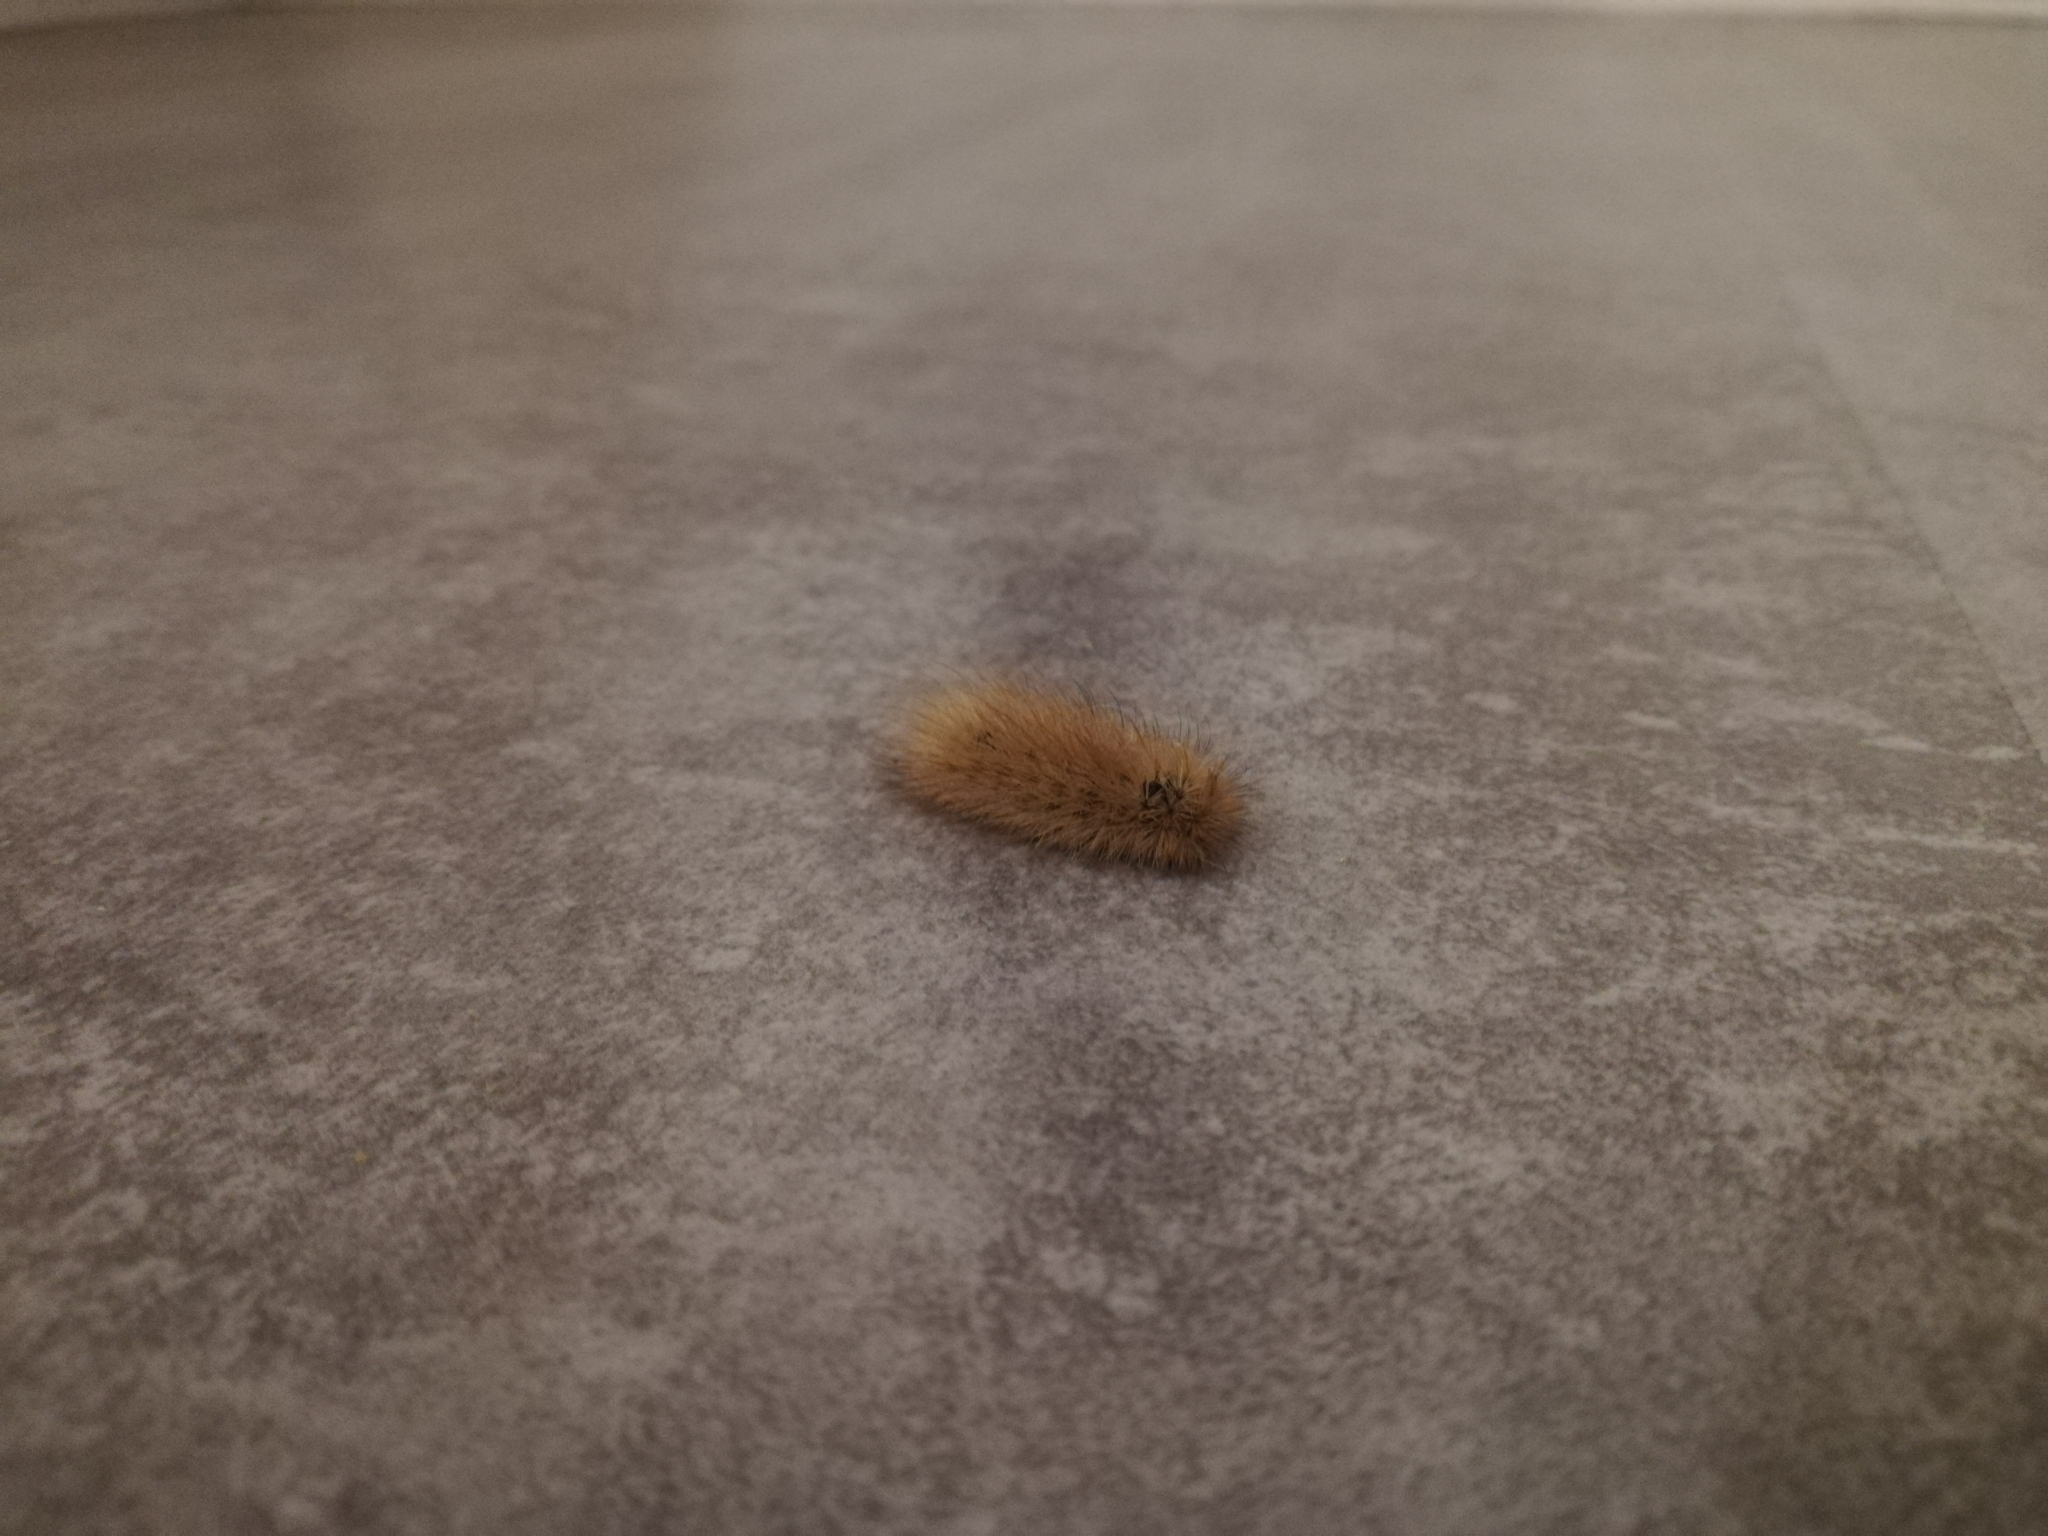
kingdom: Animalia
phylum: Arthropoda
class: Insecta
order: Lepidoptera
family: Erebidae
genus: Phragmatobia
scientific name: Phragmatobia fuliginosa
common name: Ruby tiger
